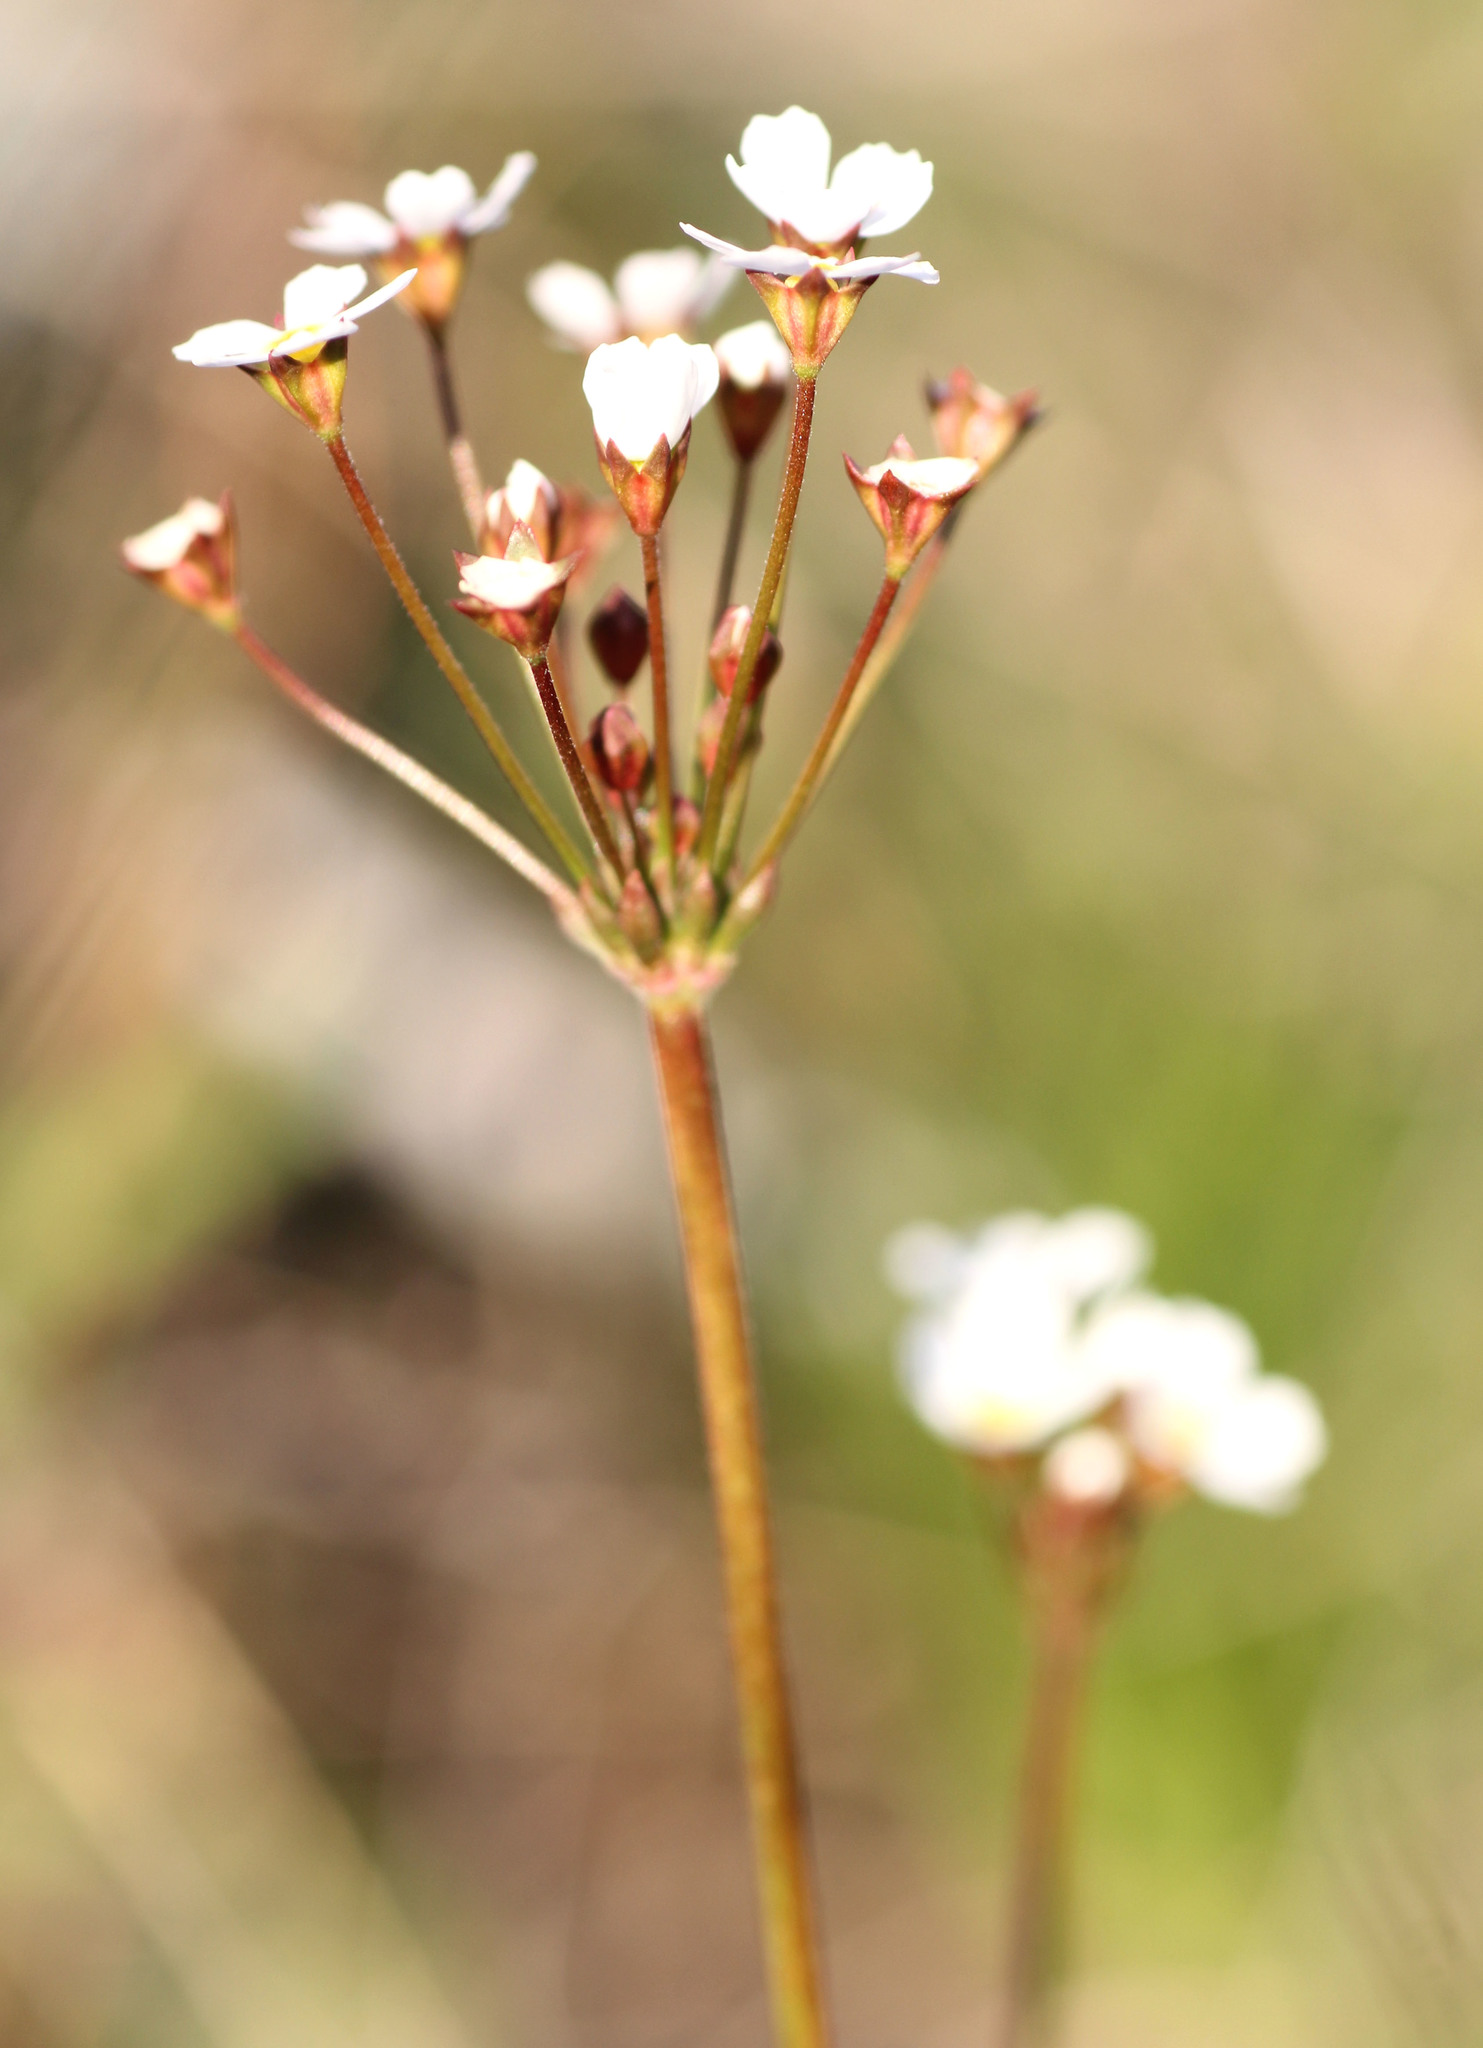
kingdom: Plantae
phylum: Tracheophyta
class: Magnoliopsida
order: Ericales
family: Primulaceae
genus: Androsace
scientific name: Androsace septentrionalis
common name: Hairy northern fairy-candelabra
